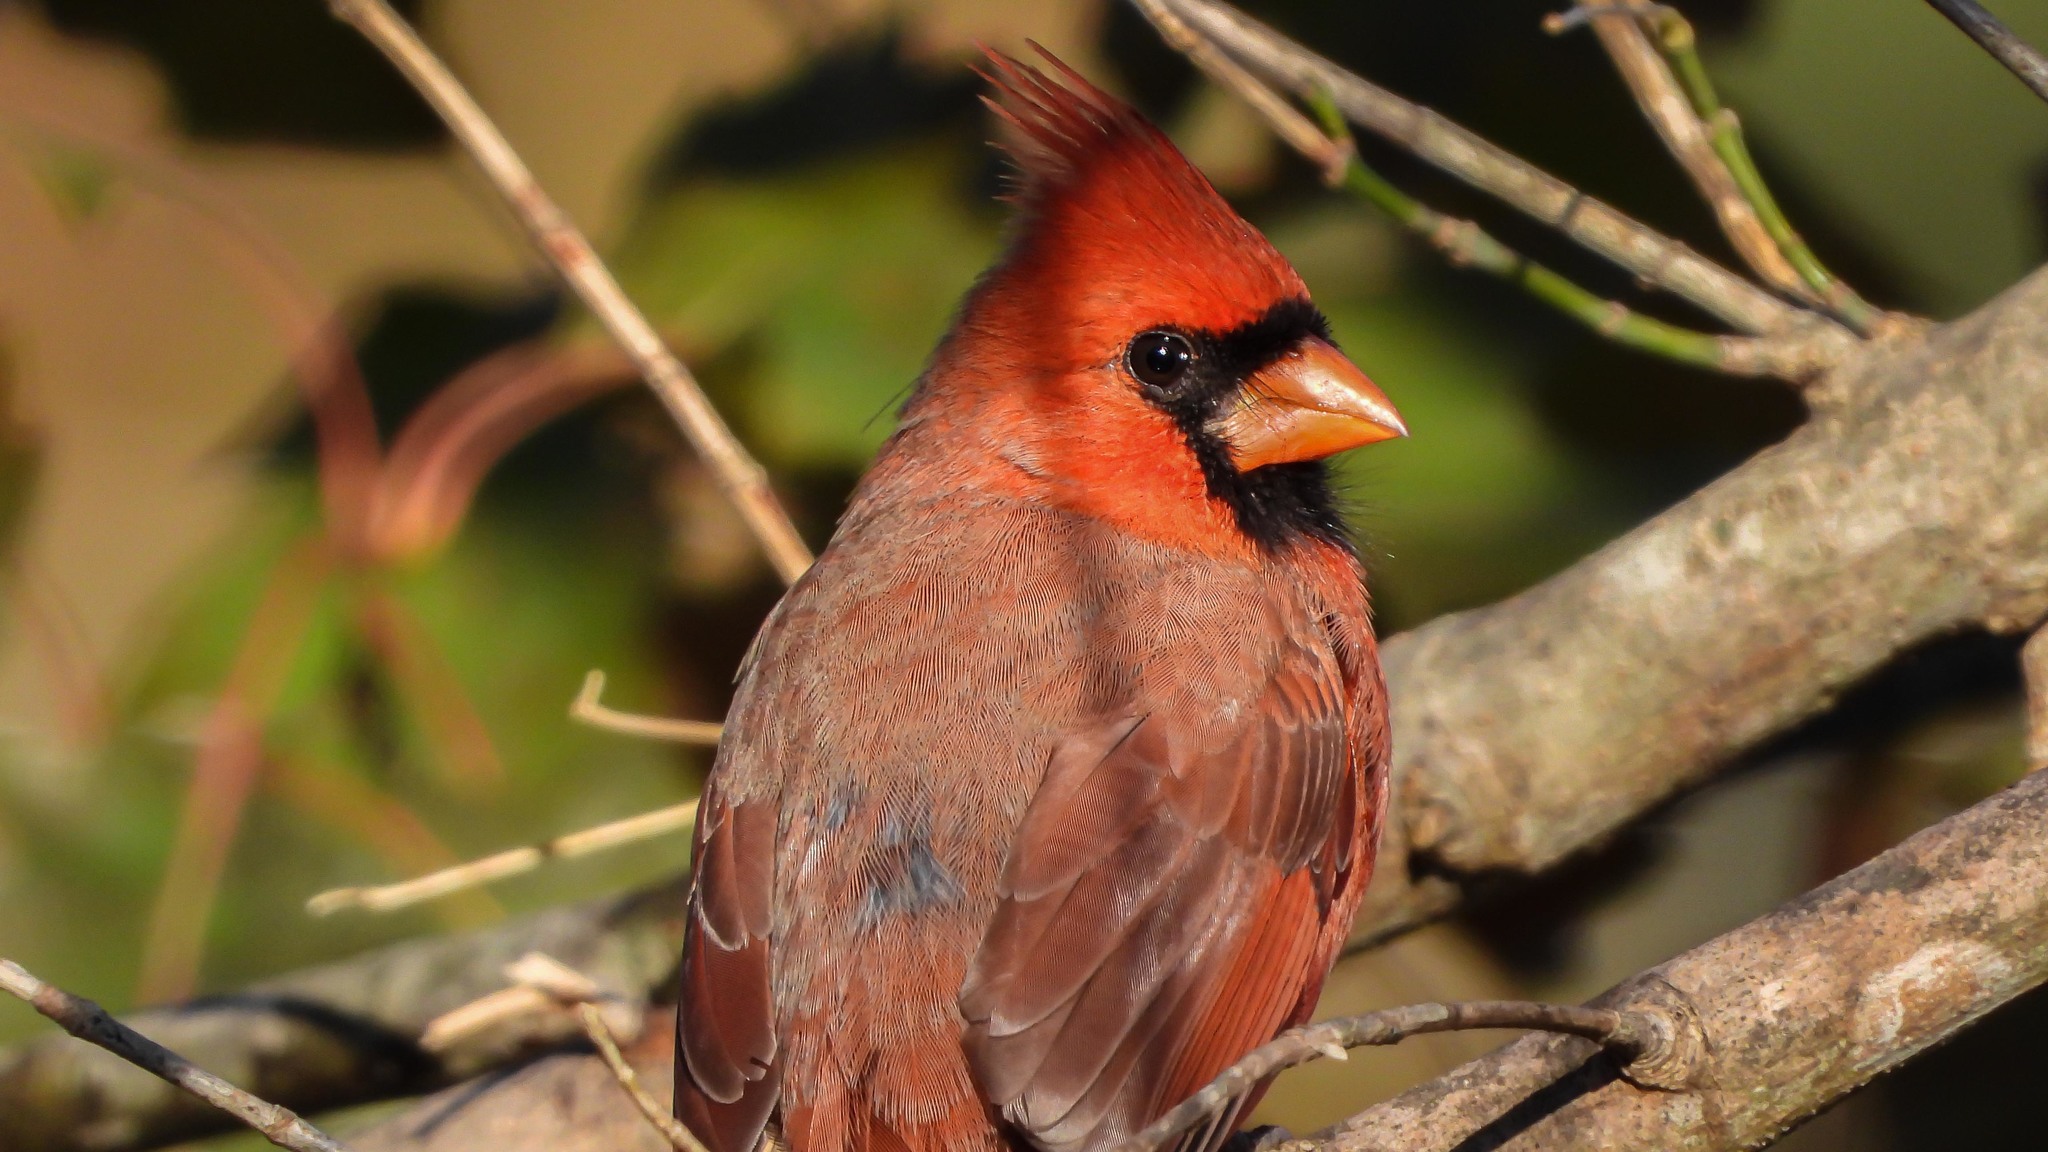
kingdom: Animalia
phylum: Chordata
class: Aves
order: Passeriformes
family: Cardinalidae
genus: Cardinalis
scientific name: Cardinalis cardinalis
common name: Northern cardinal
